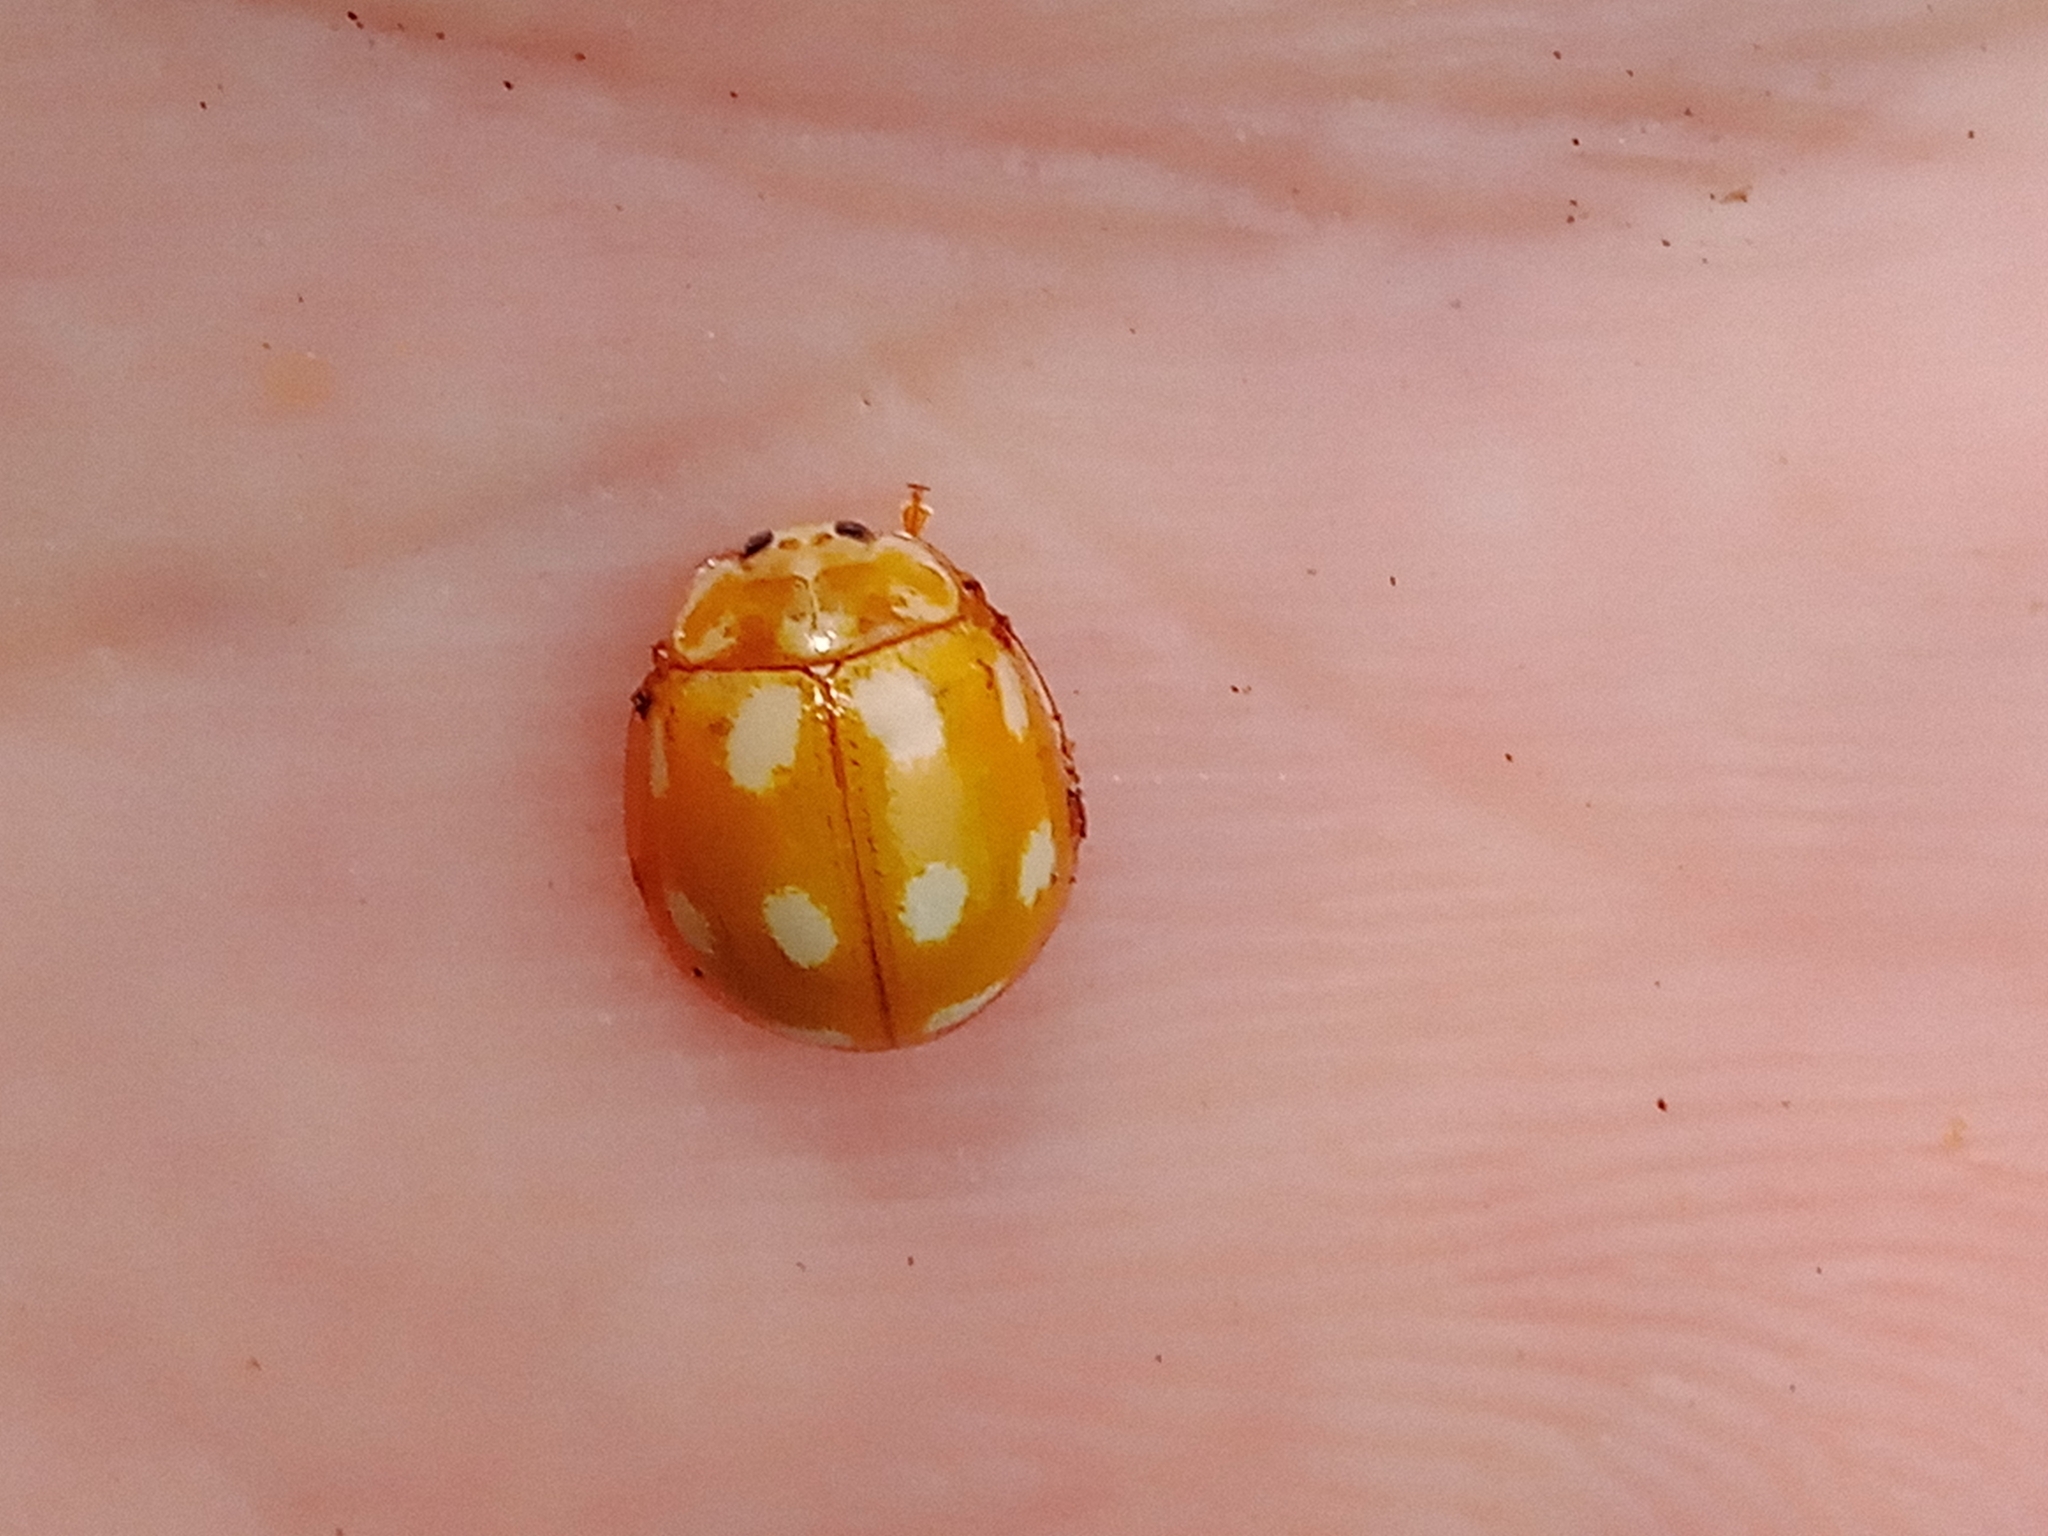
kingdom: Animalia
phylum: Arthropoda
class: Insecta
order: Coleoptera
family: Coccinellidae
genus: Calvia
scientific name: Calvia decemguttata
